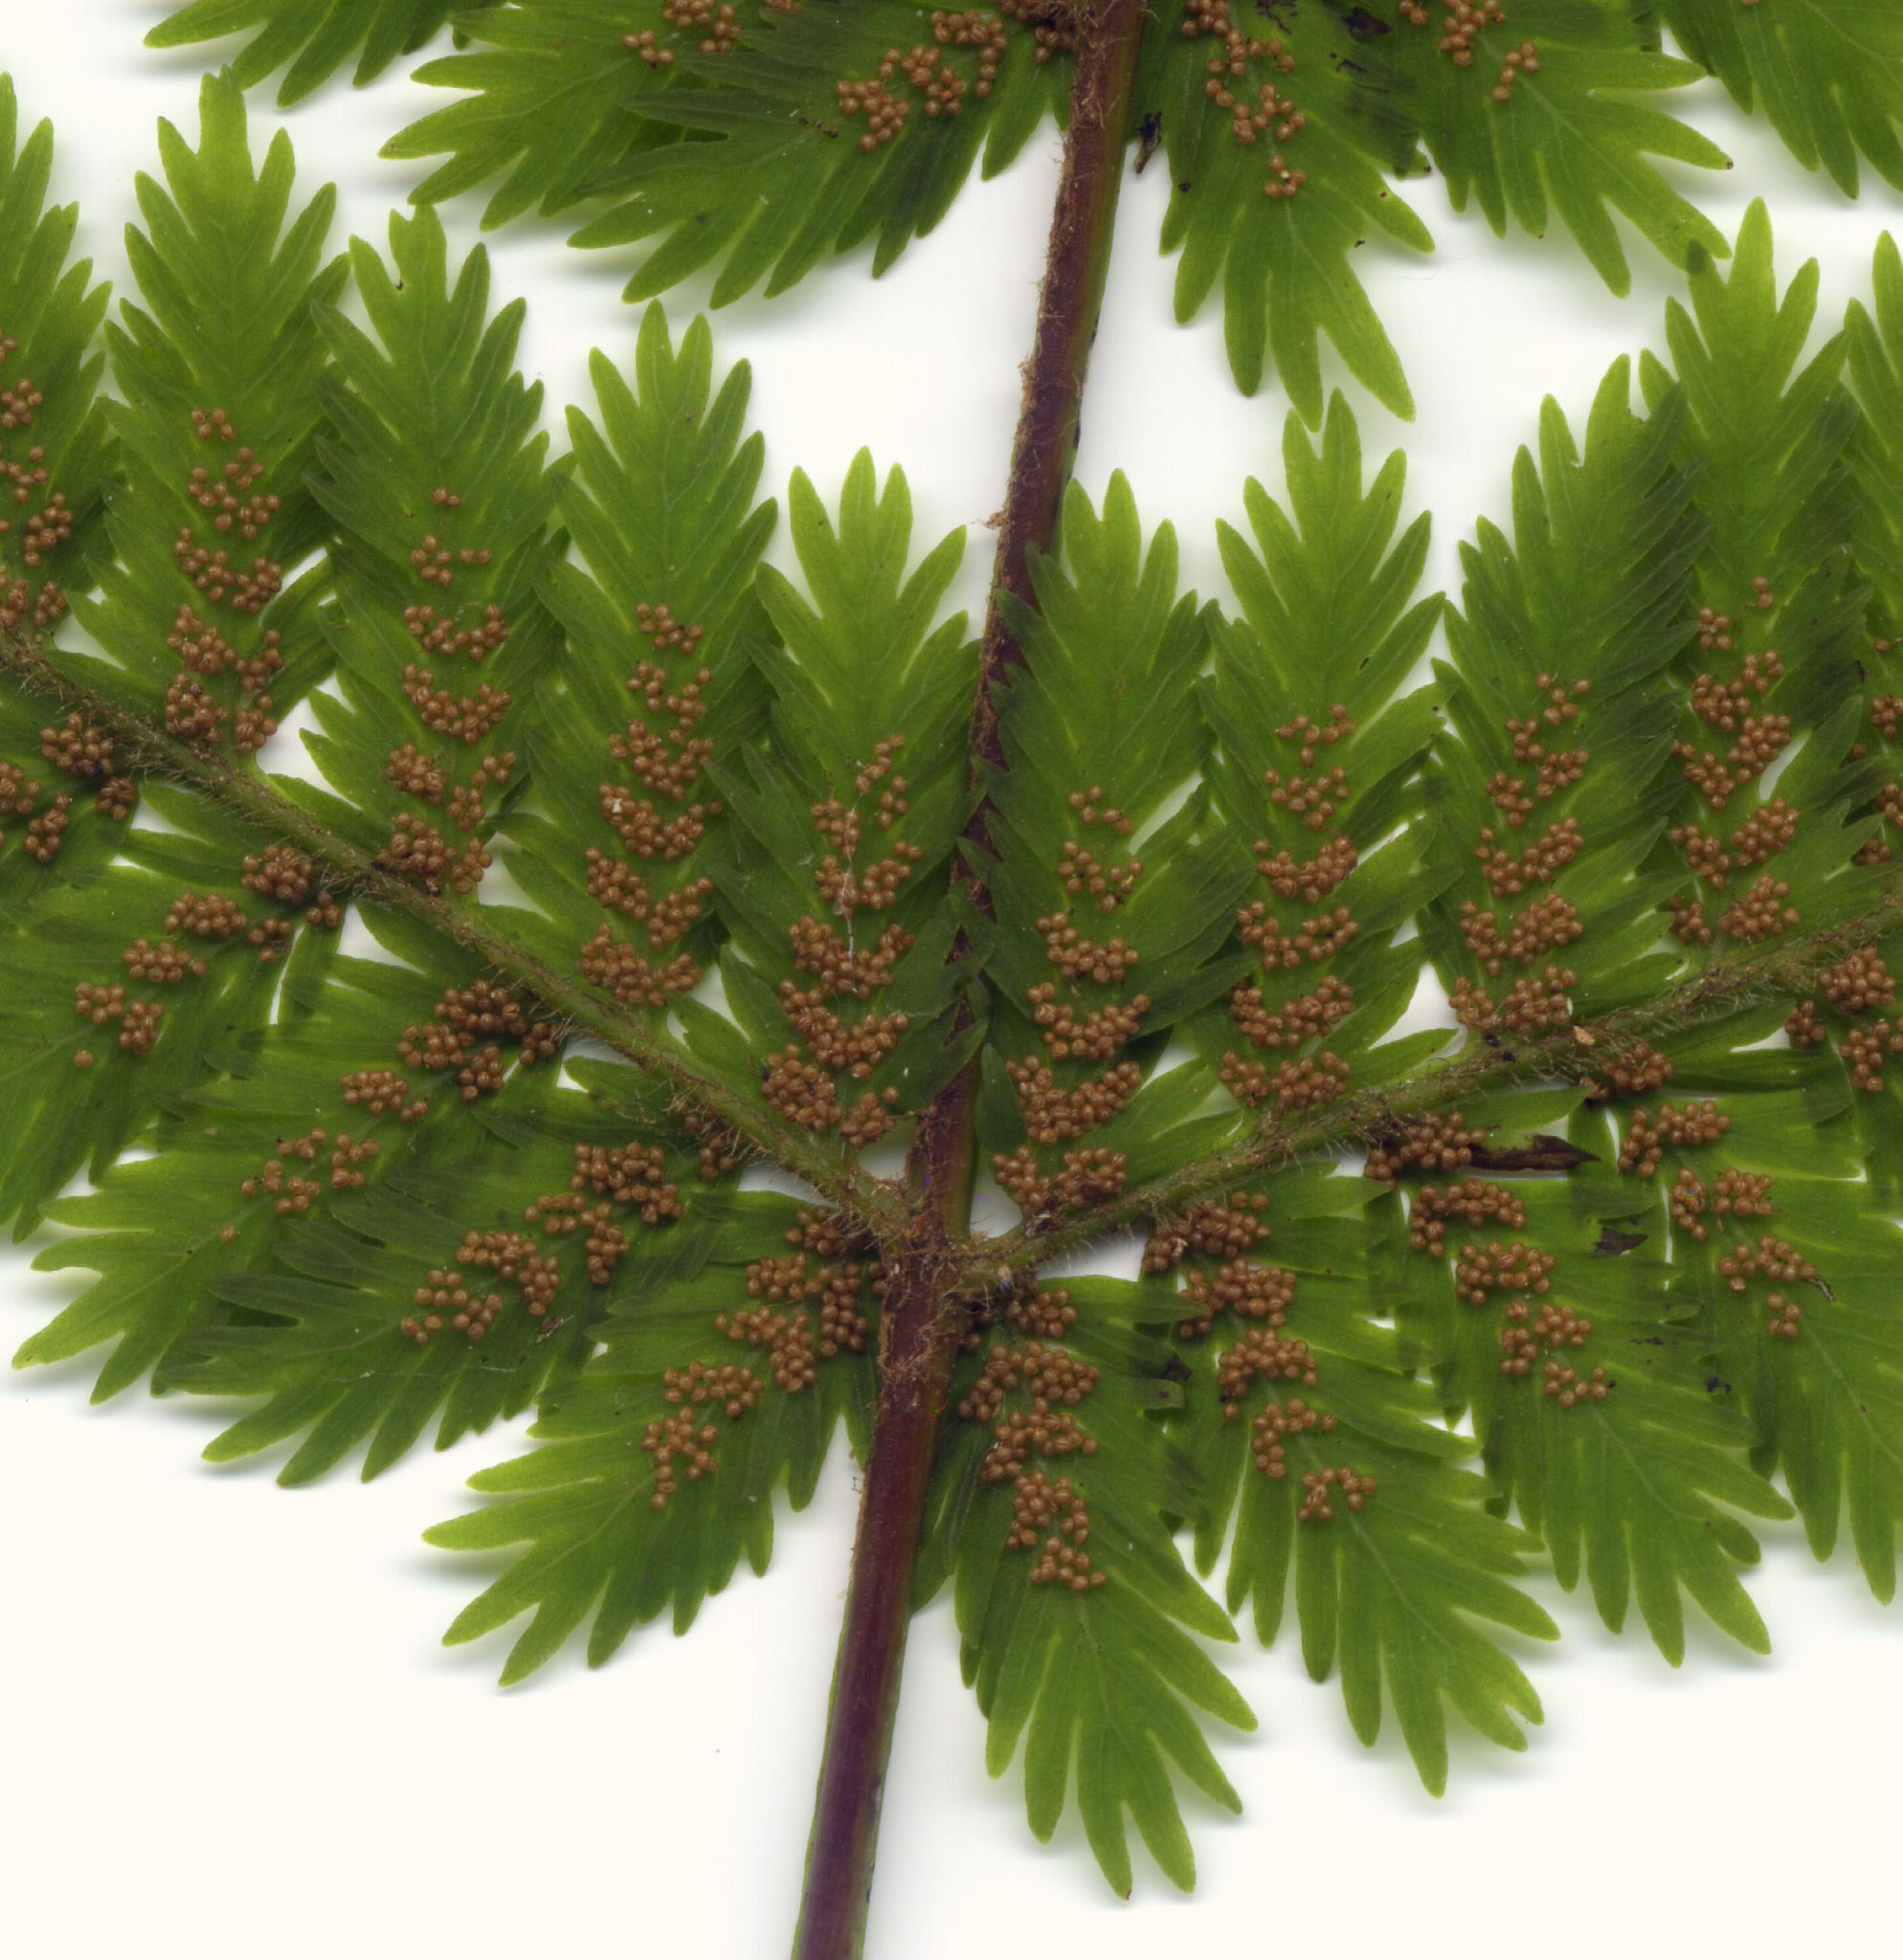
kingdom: Plantae
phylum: Tracheophyta
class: Polypodiopsida
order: Osmundales
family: Osmundaceae
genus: Leptopteris
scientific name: Leptopteris hymenophylloides
